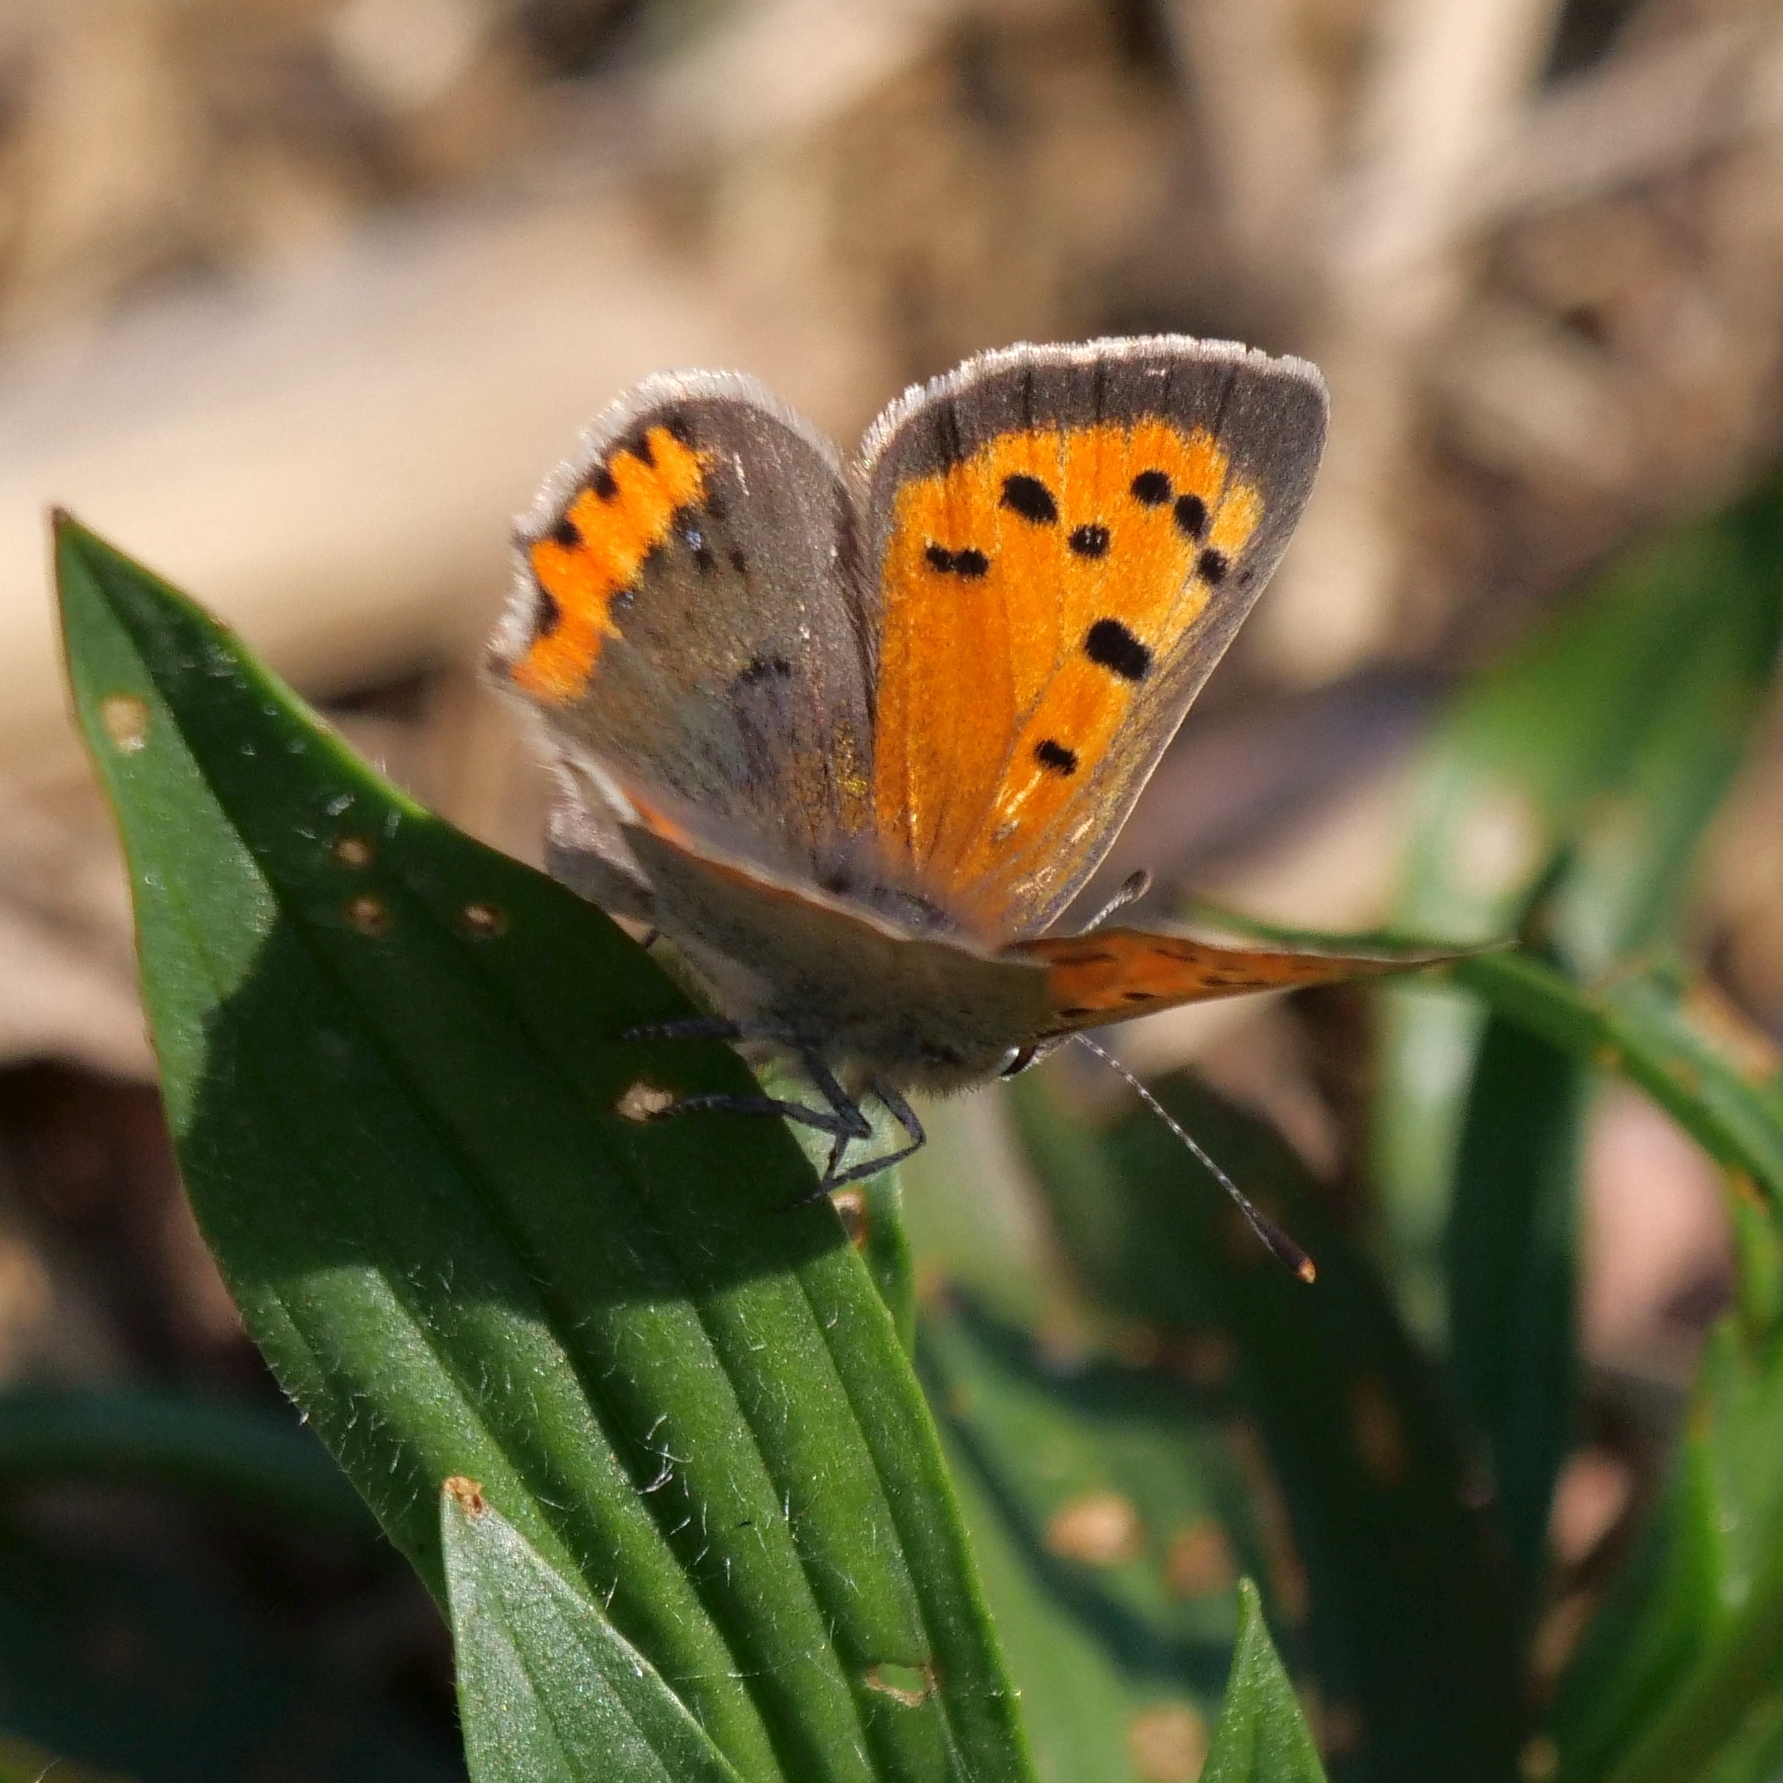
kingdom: Animalia
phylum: Arthropoda
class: Insecta
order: Lepidoptera
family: Lycaenidae
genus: Lycaena
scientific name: Lycaena phlaeas
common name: Small copper
